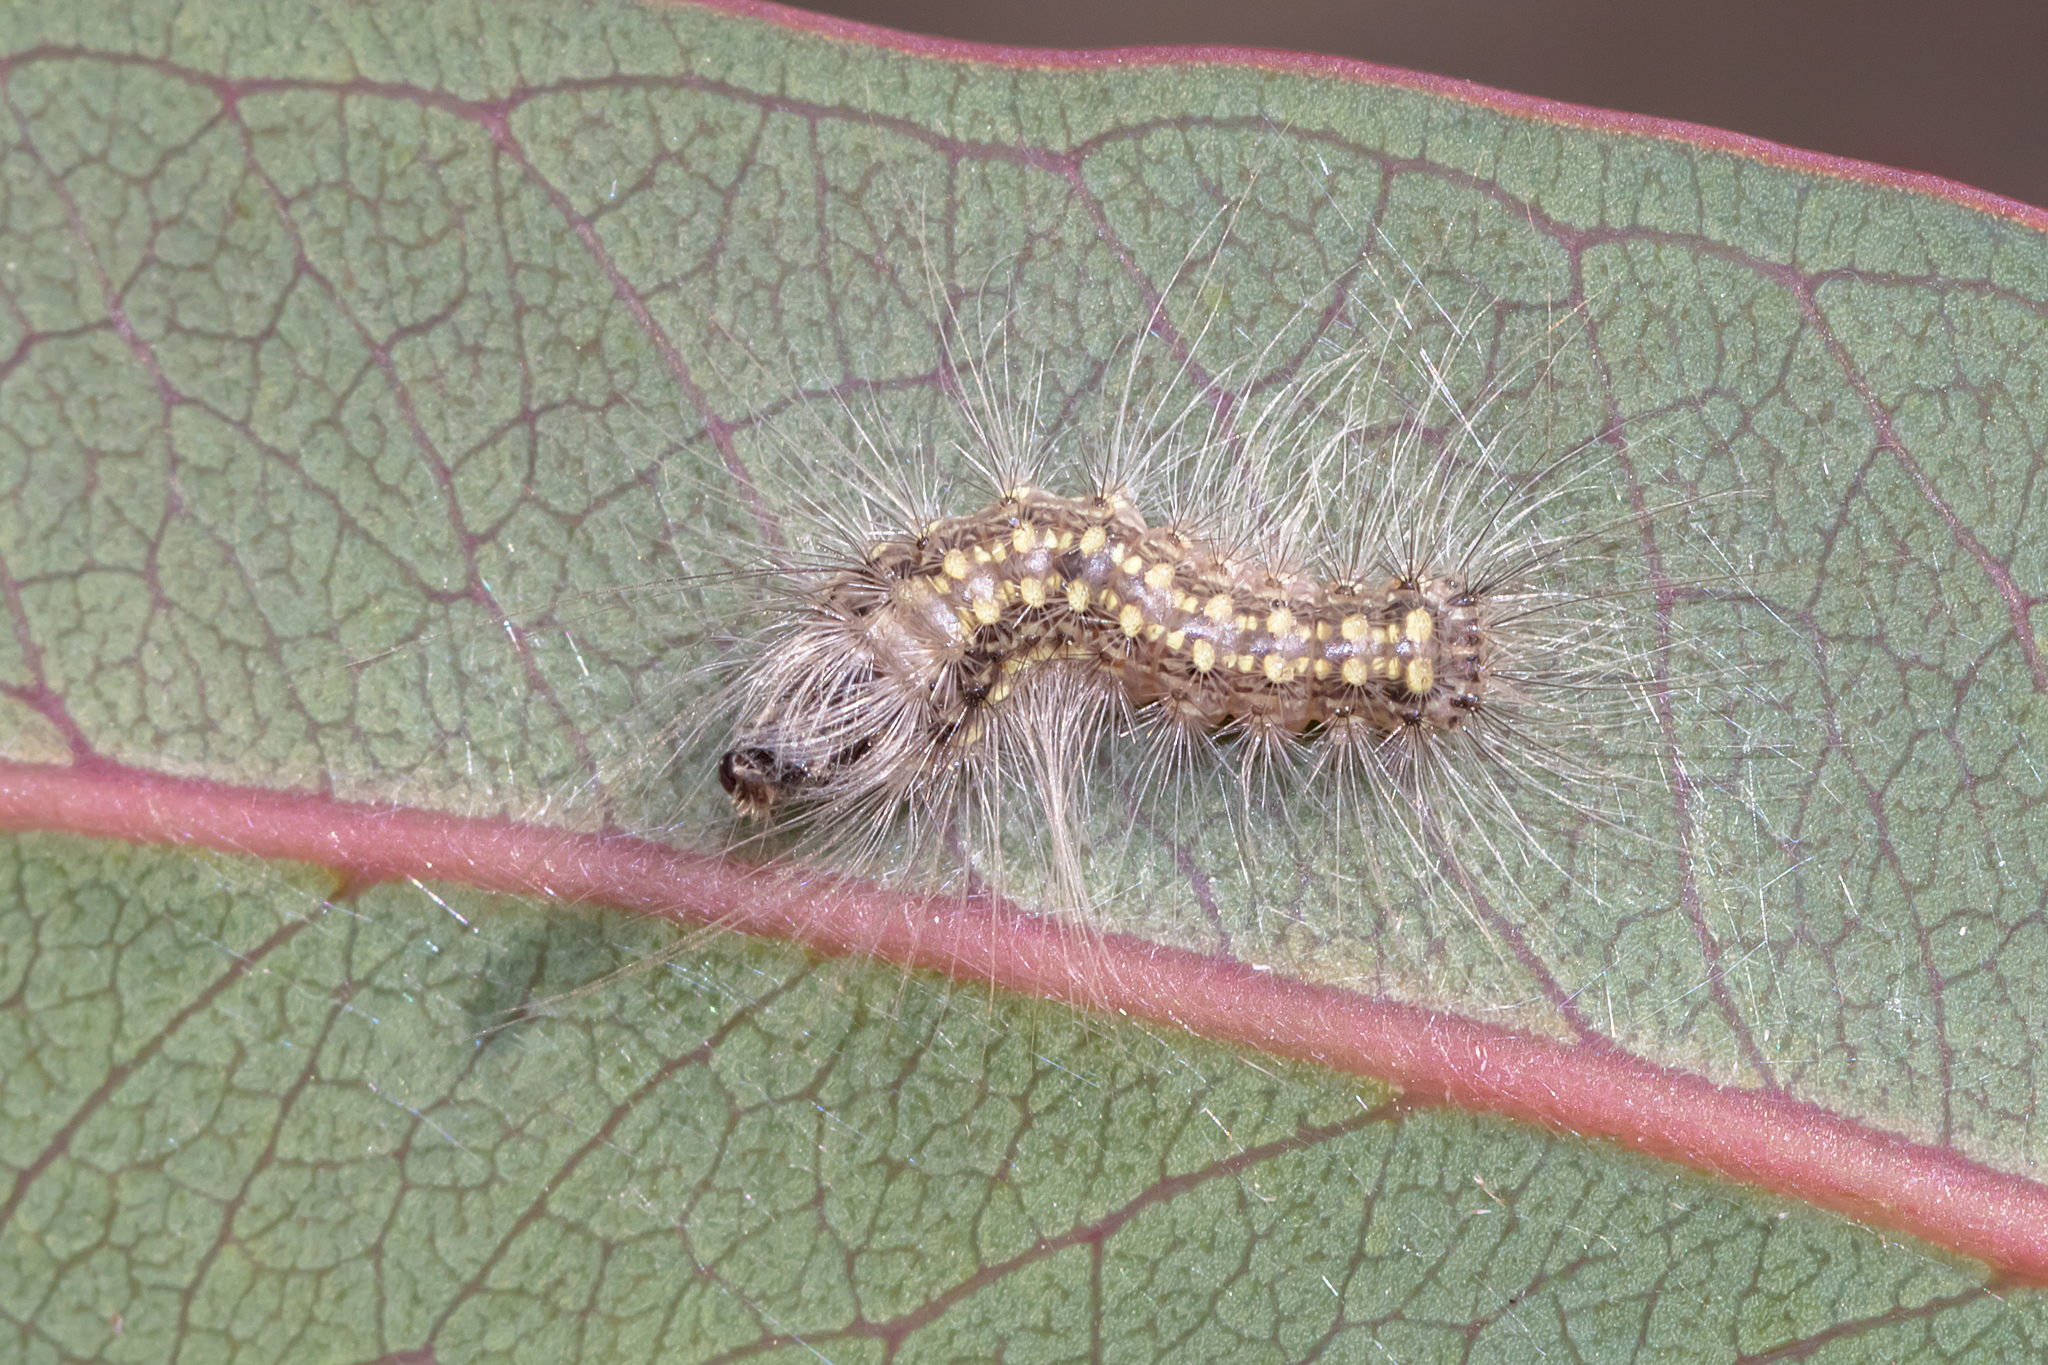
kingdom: Animalia
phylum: Arthropoda
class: Insecta
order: Lepidoptera
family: Nolidae
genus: Uraba
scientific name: Uraba lugens
